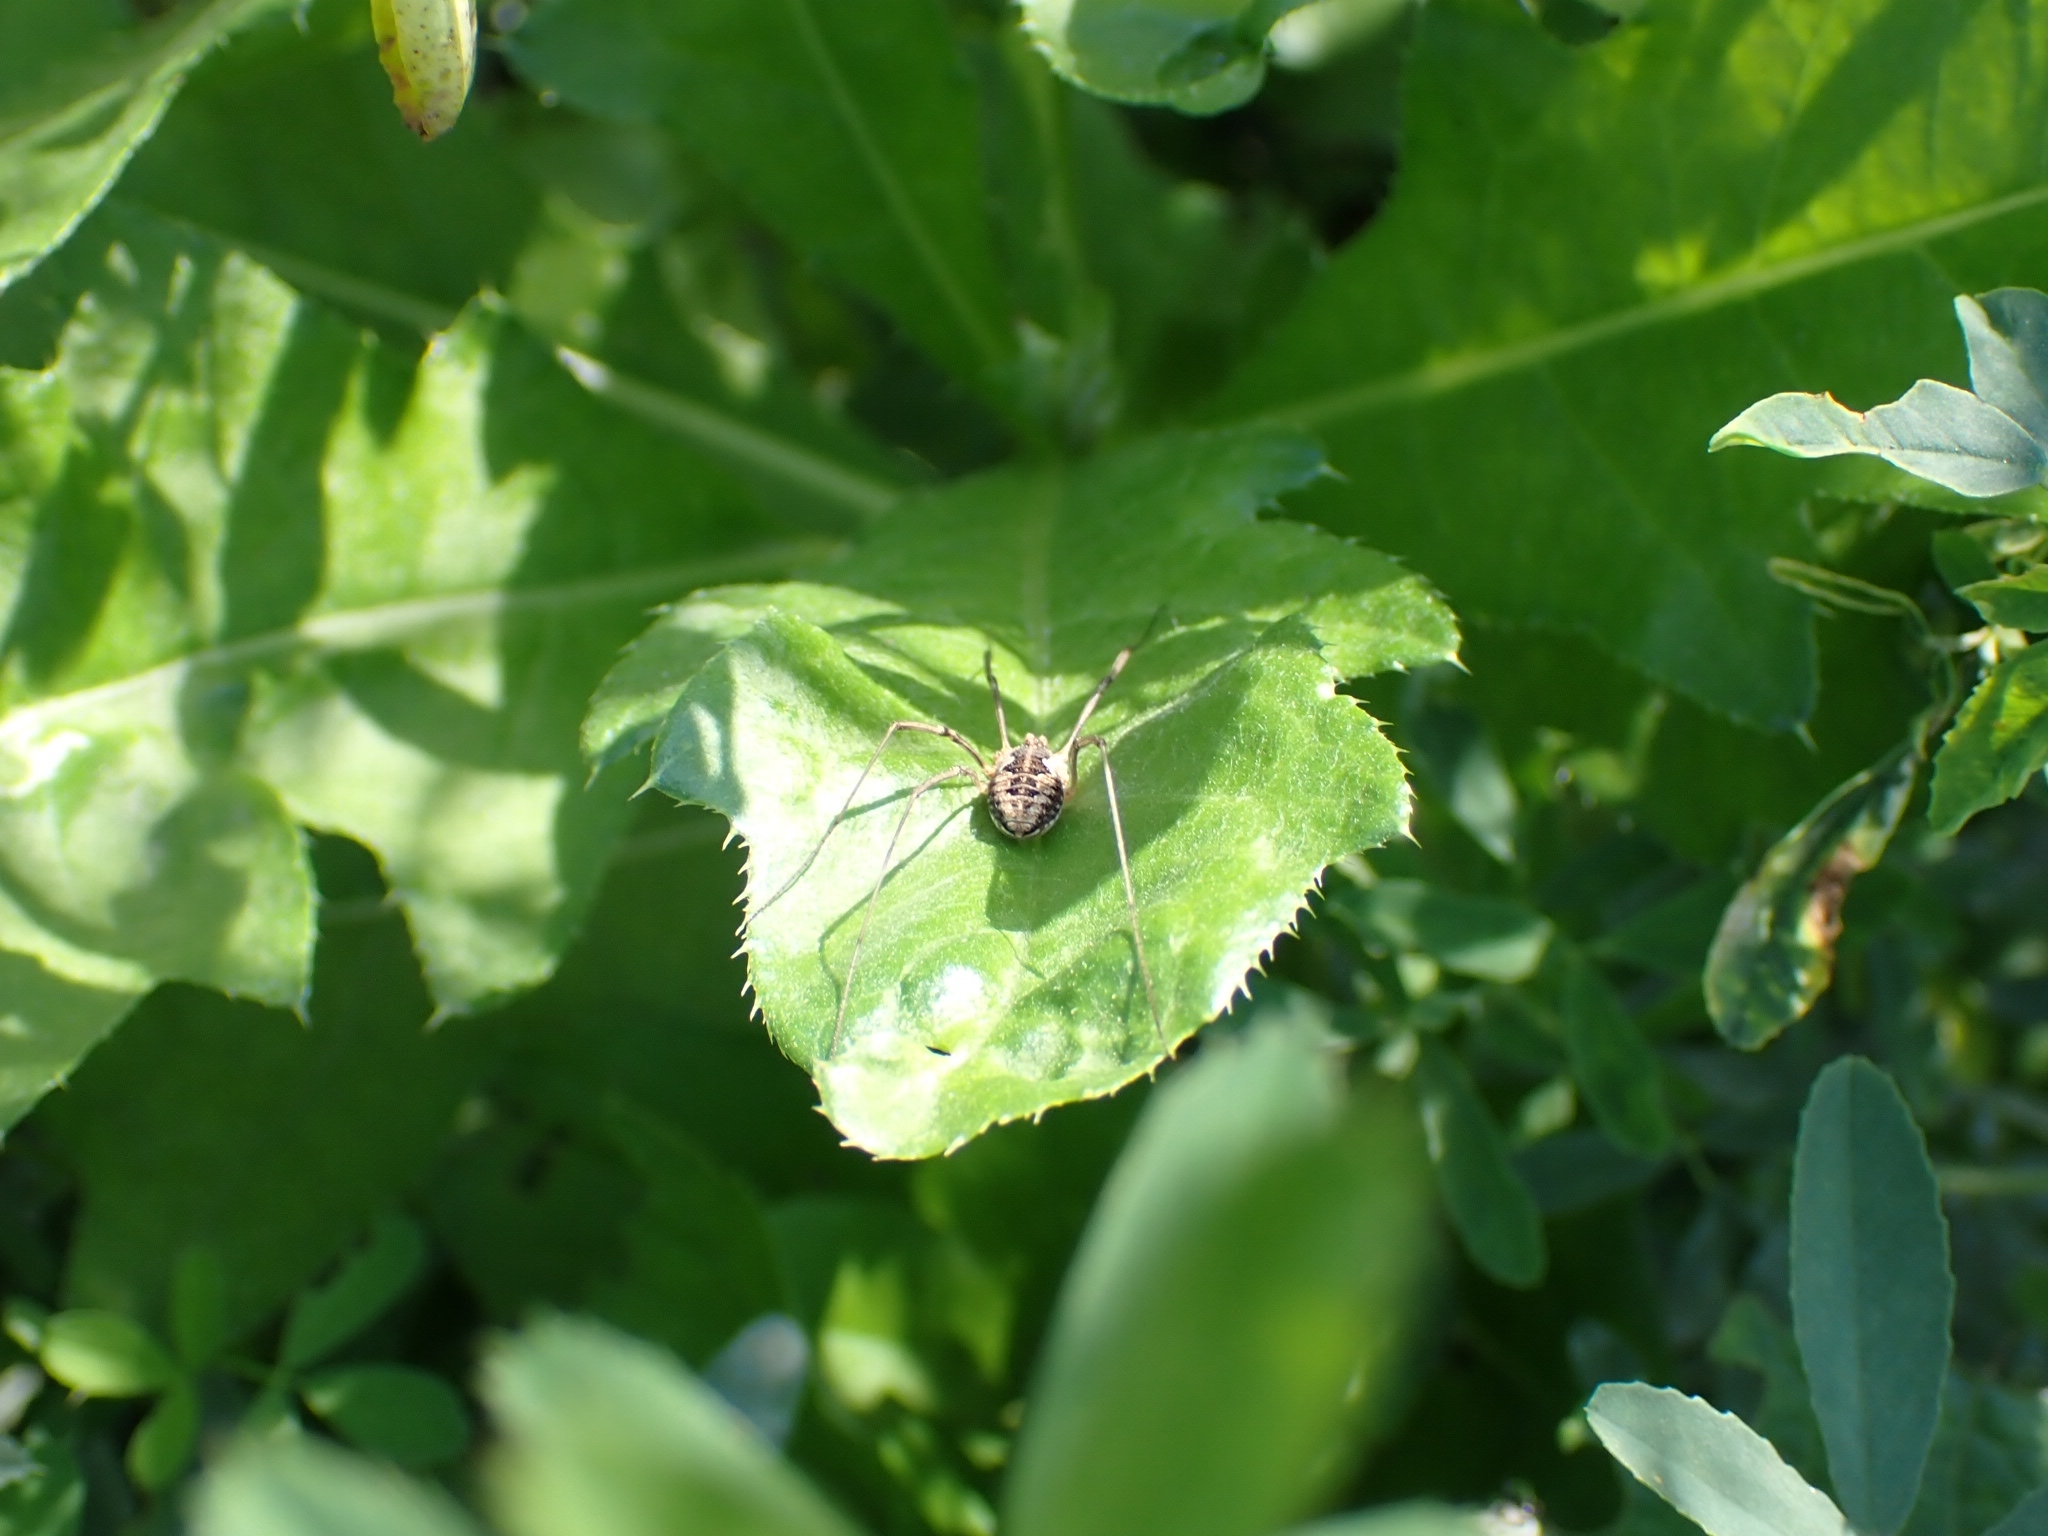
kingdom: Animalia
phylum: Arthropoda
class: Arachnida
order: Opiliones
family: Phalangiidae
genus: Phalangium
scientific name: Phalangium opilio
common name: Daddy longleg
